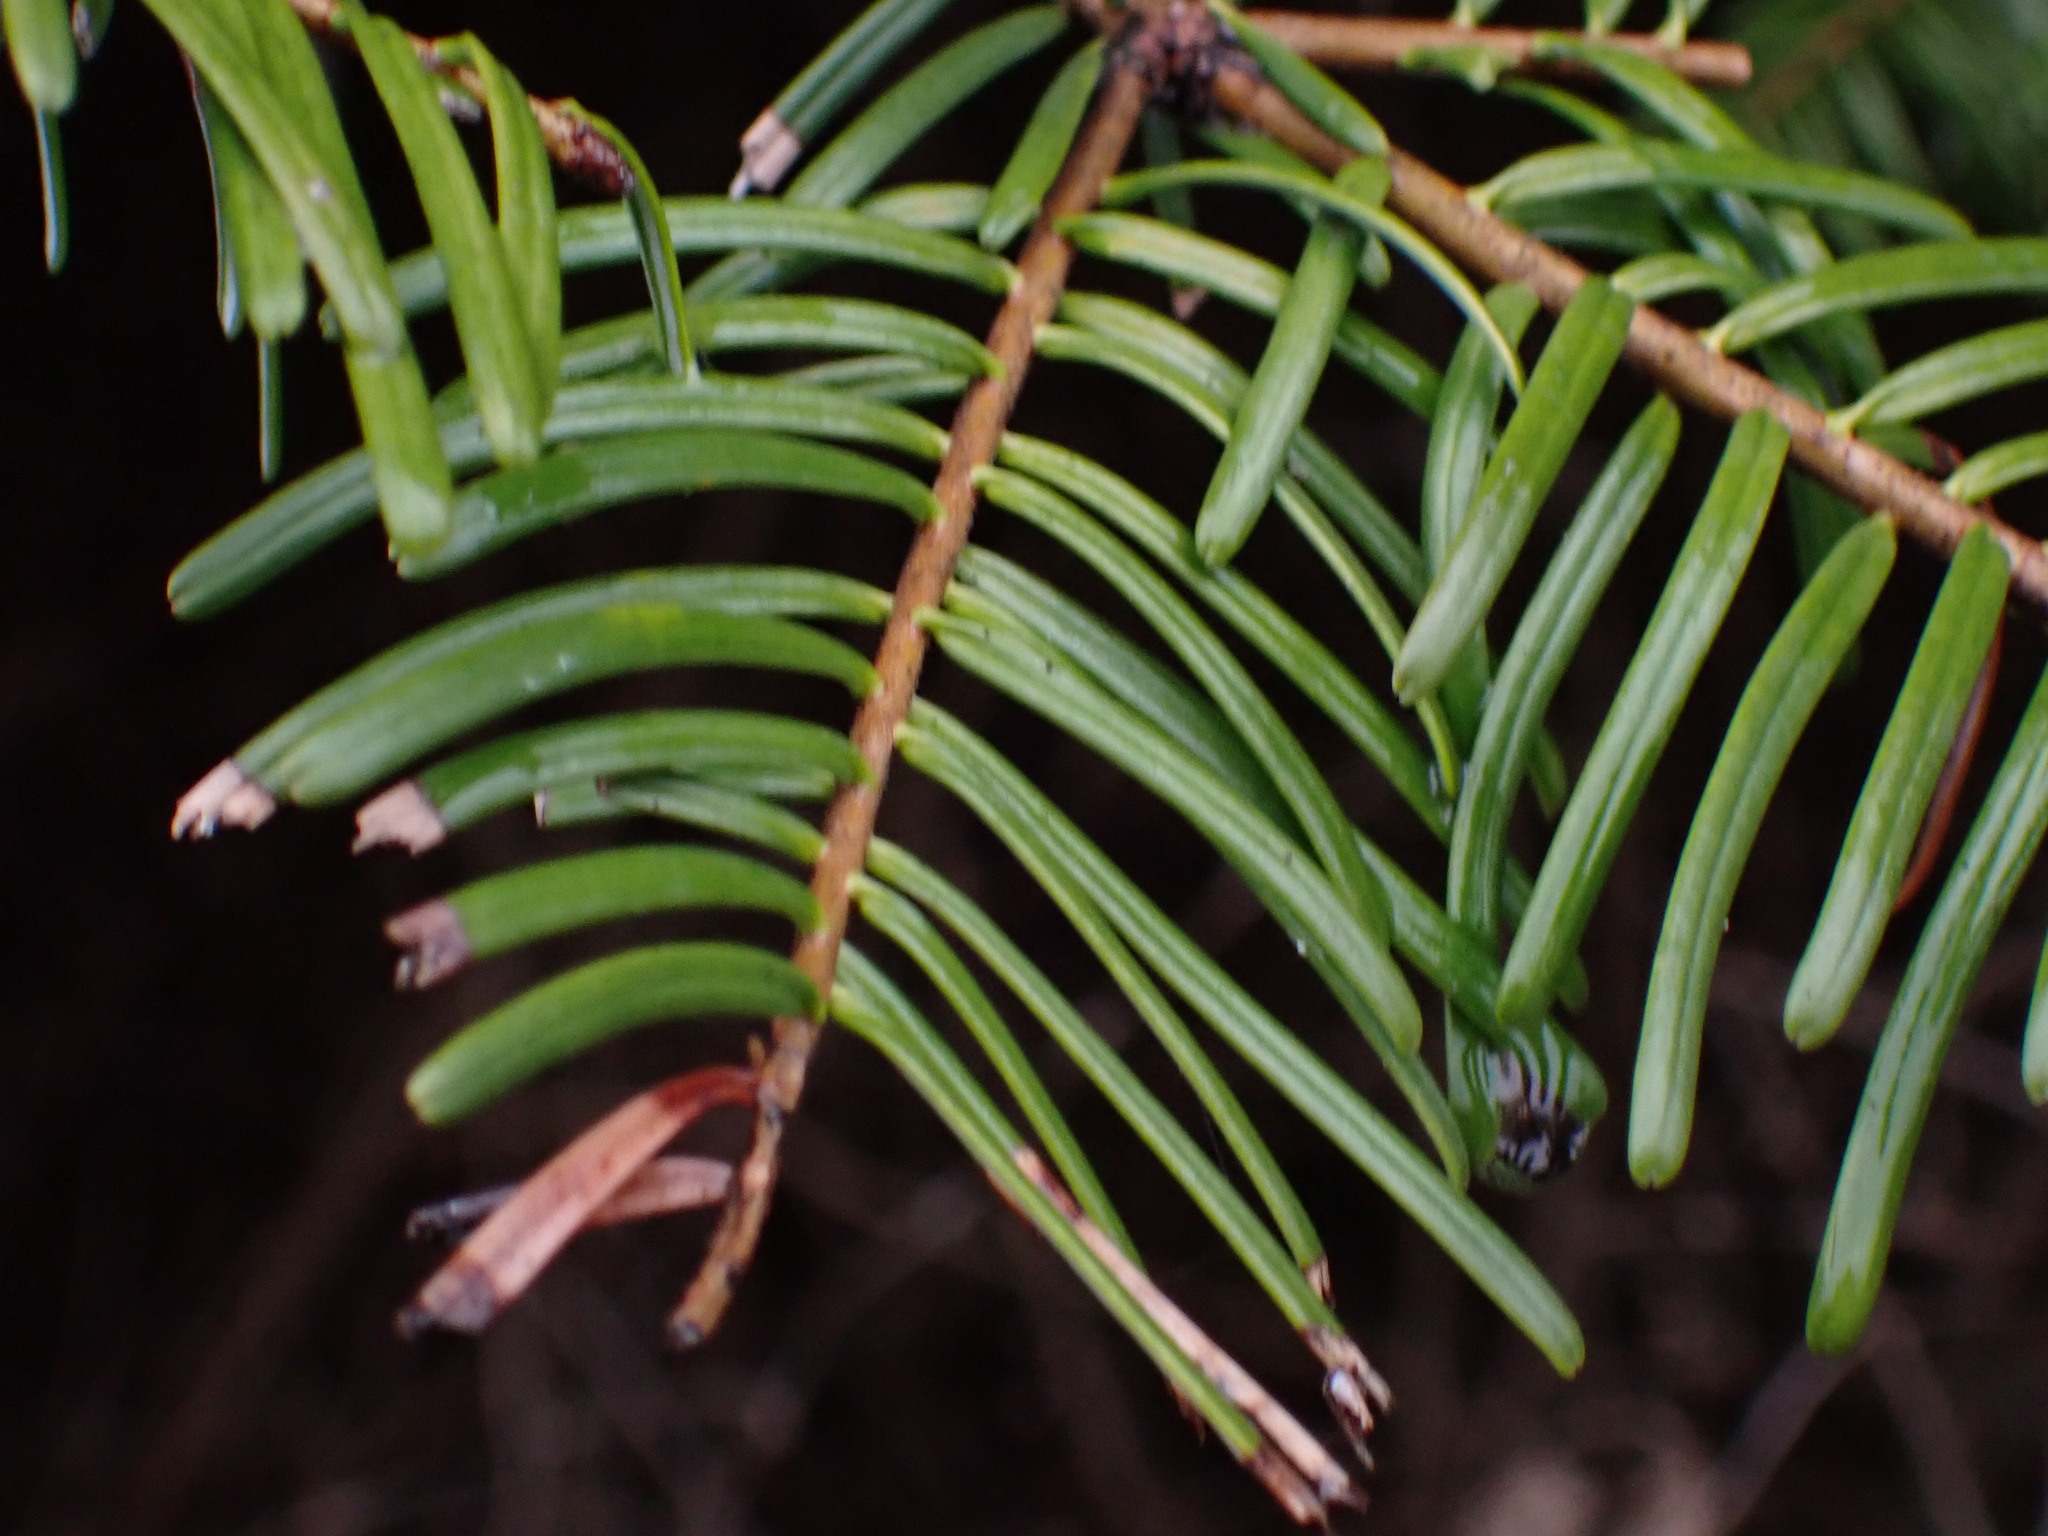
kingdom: Plantae
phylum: Tracheophyta
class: Pinopsida
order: Pinales
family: Pinaceae
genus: Abies
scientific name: Abies grandis
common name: Giant fir
